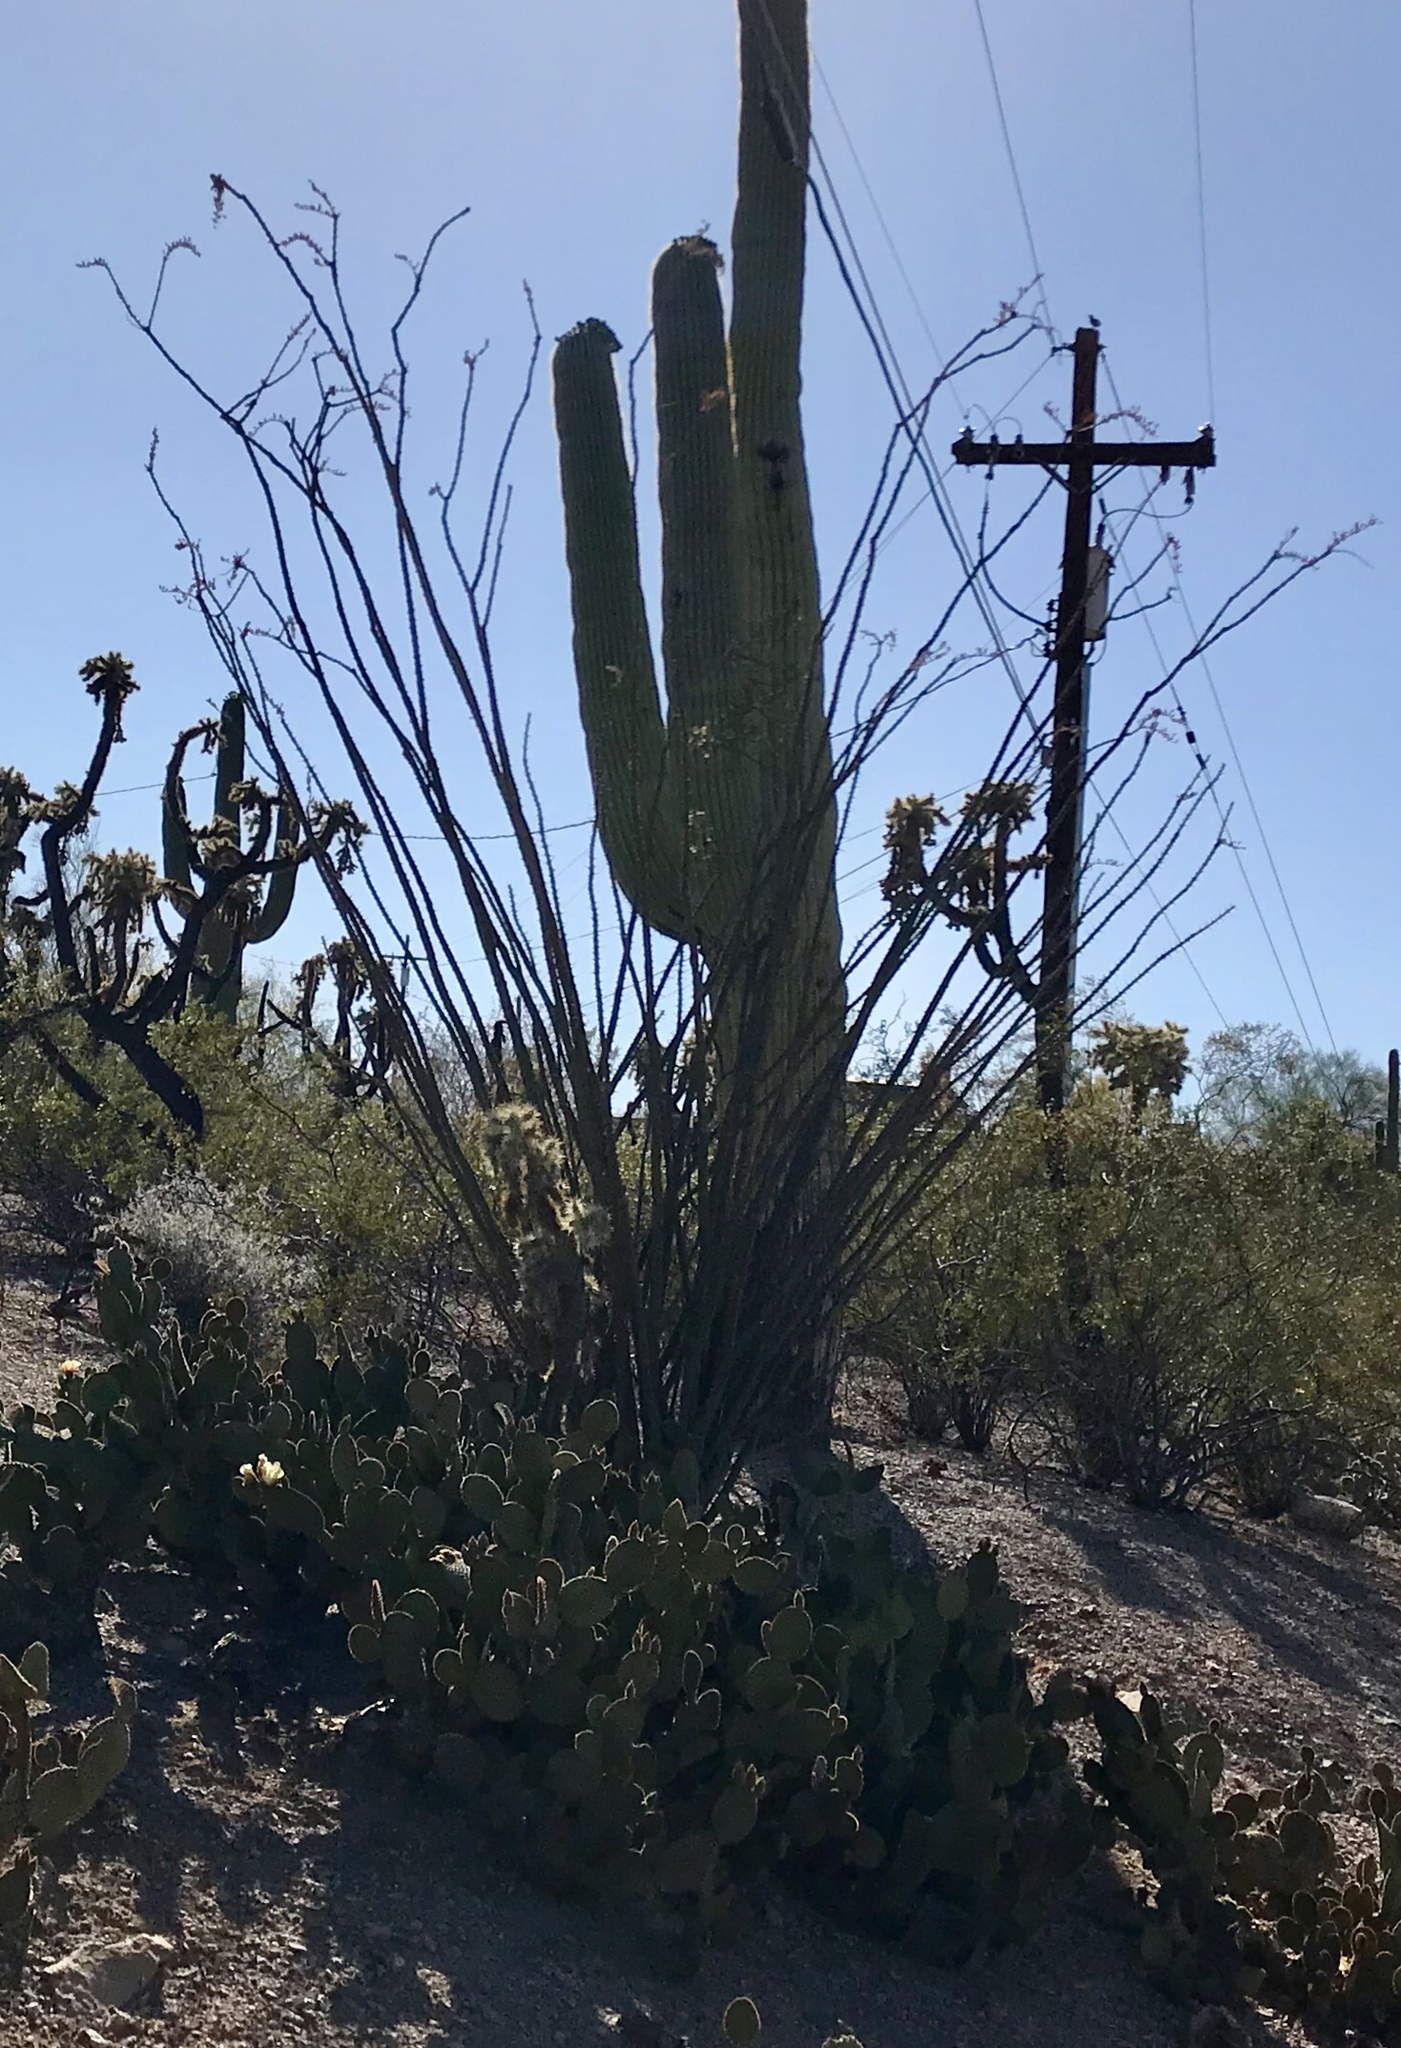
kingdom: Plantae
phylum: Tracheophyta
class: Magnoliopsida
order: Ericales
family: Fouquieriaceae
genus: Fouquieria
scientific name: Fouquieria splendens
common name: Vine-cactus
